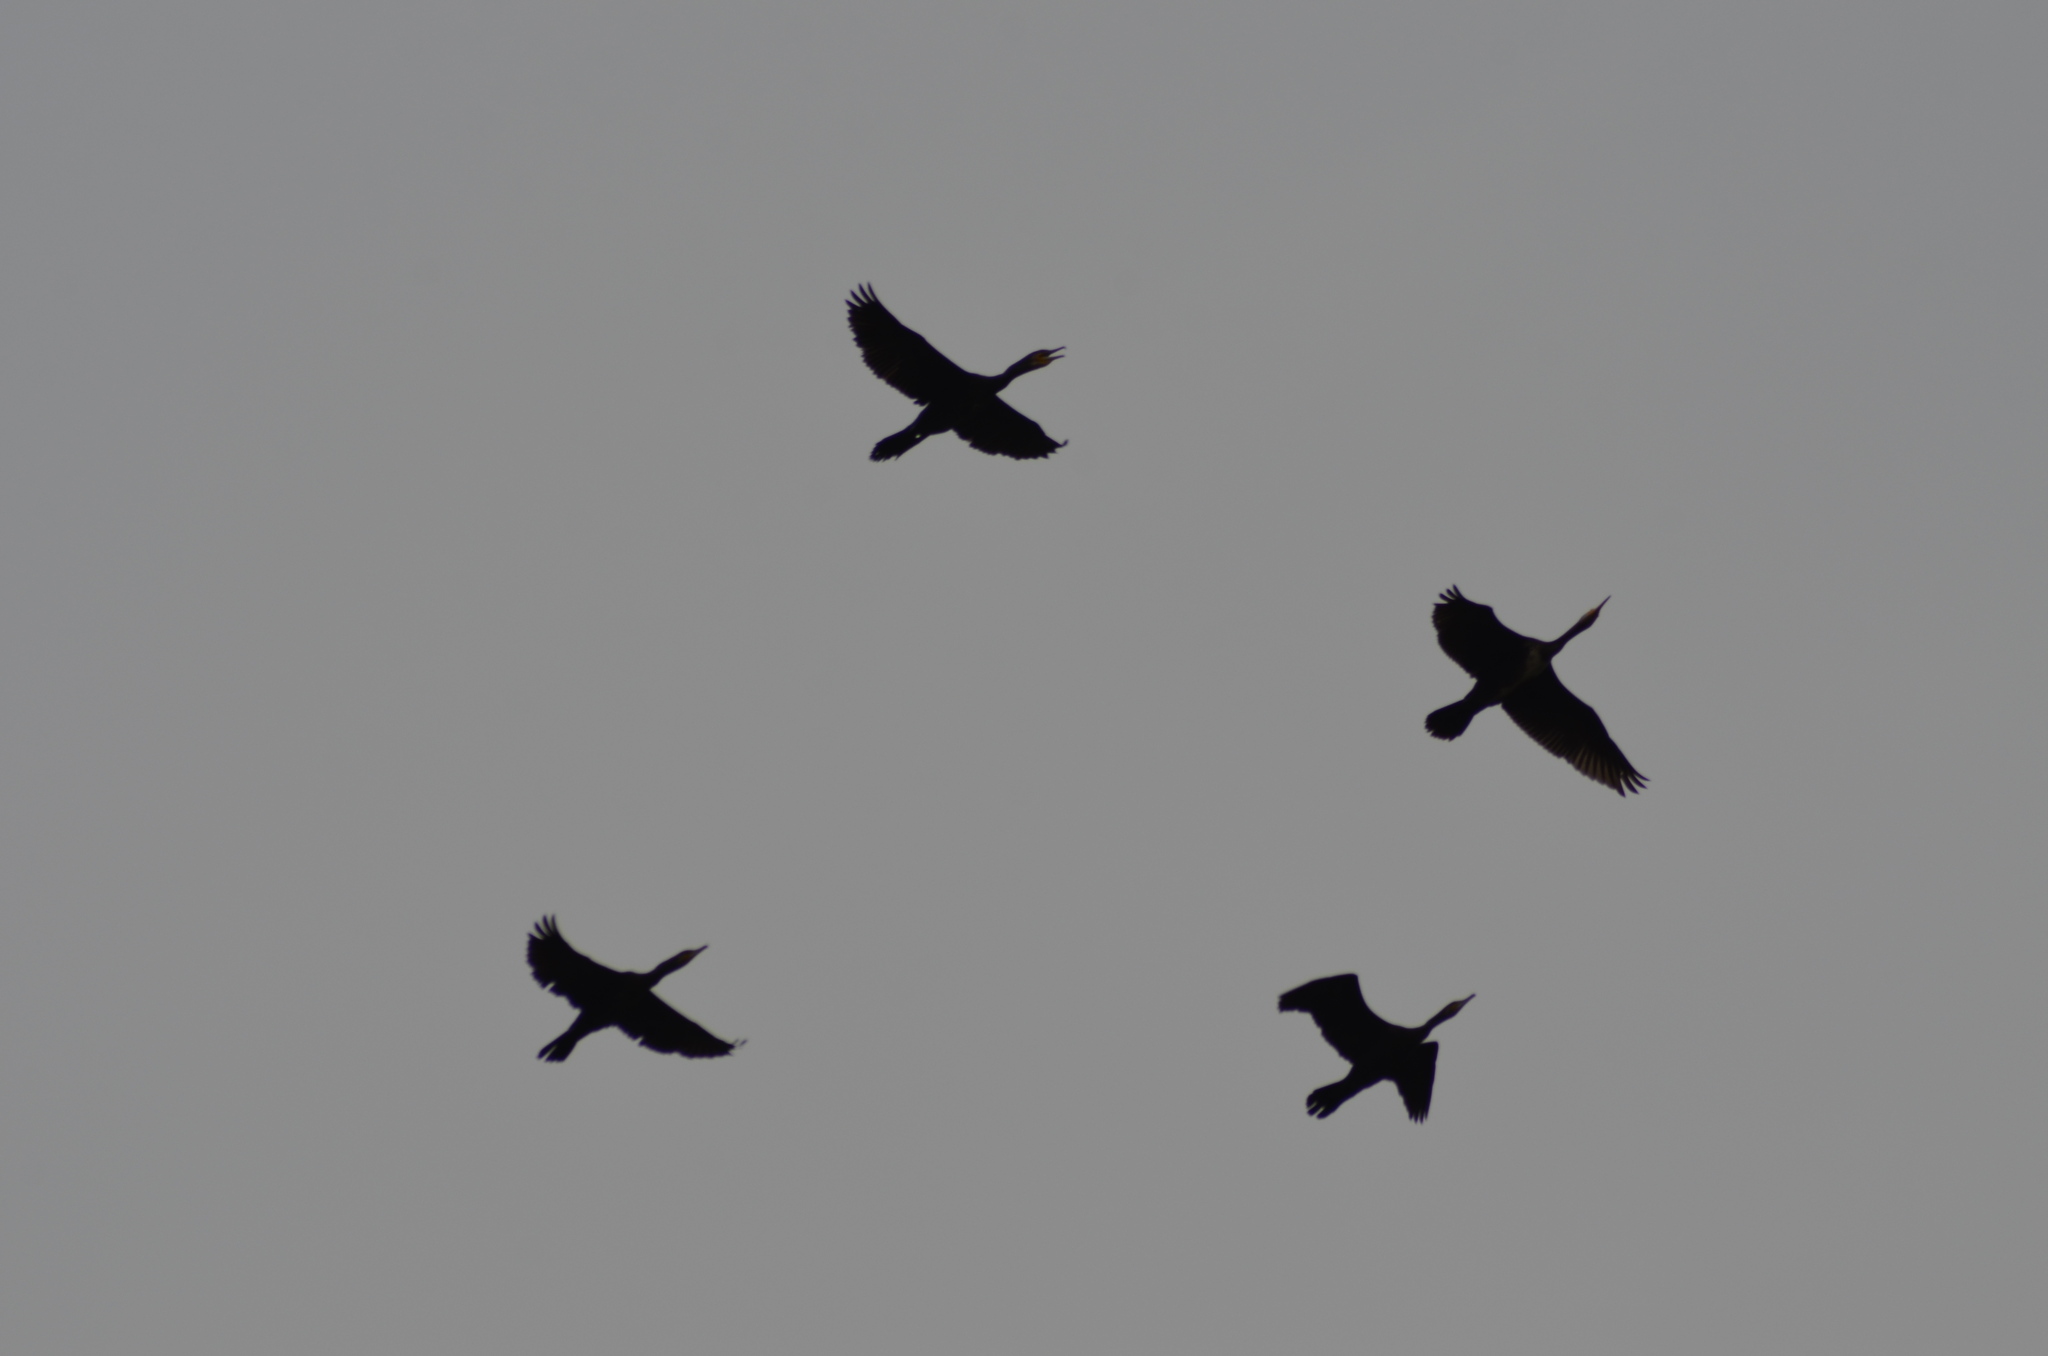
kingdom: Animalia
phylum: Chordata
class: Aves
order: Suliformes
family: Phalacrocoracidae
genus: Phalacrocorax
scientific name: Phalacrocorax carbo
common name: Great cormorant
